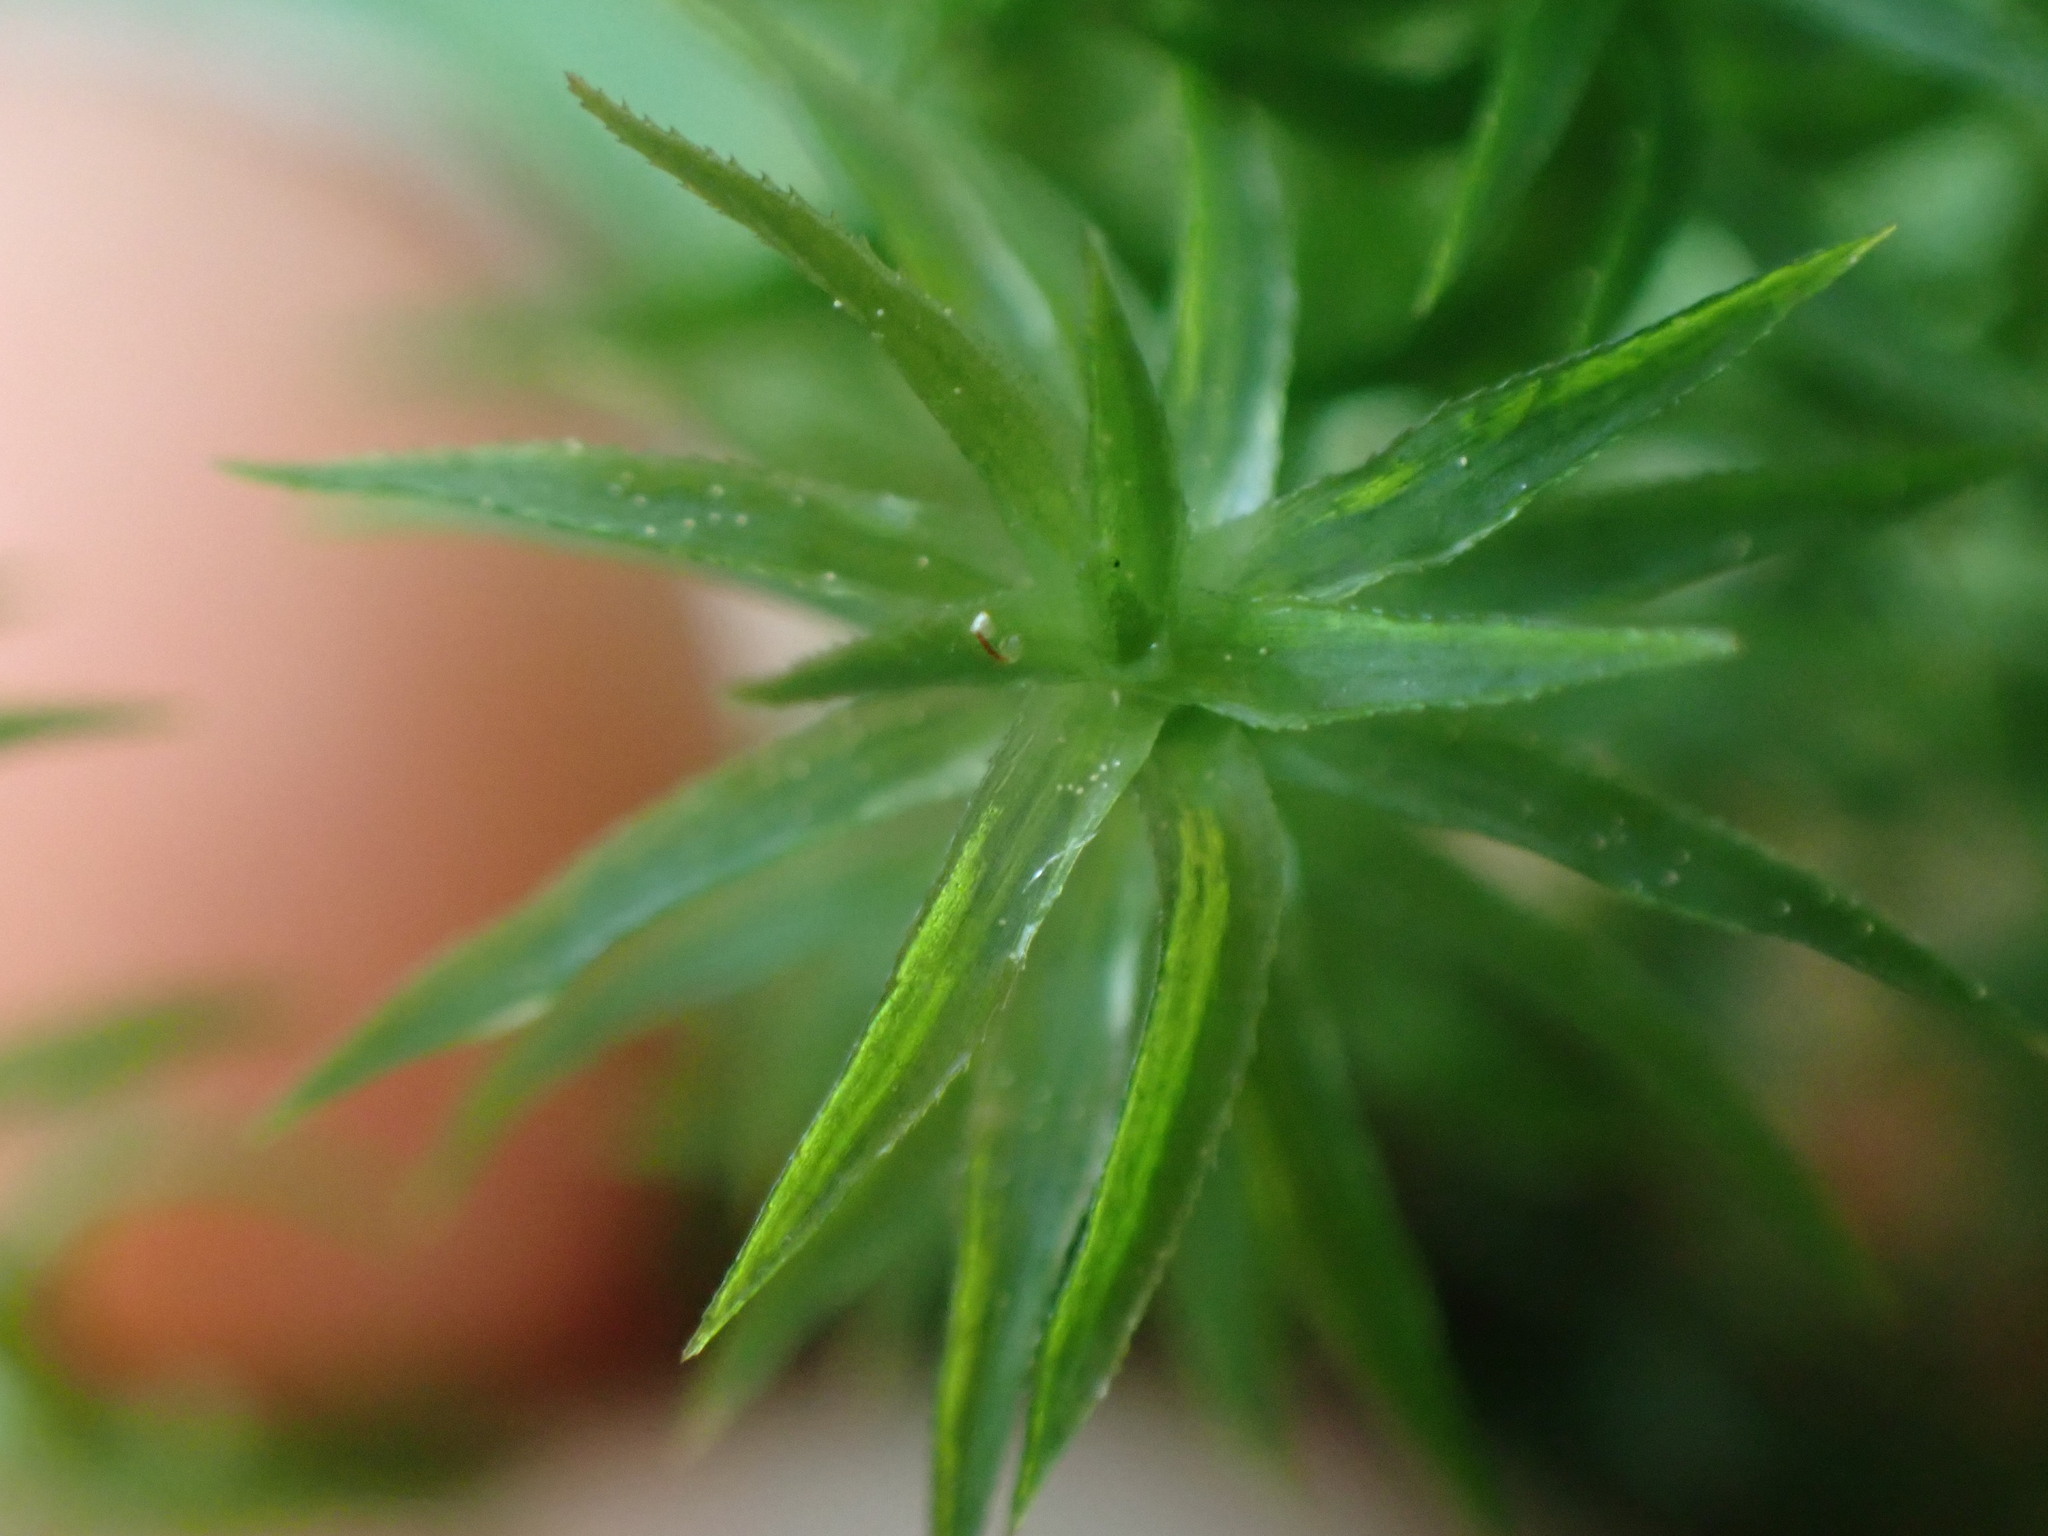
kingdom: Plantae
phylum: Bryophyta
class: Polytrichopsida
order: Polytrichales
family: Polytrichaceae
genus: Pogonatum
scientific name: Pogonatum contortum
